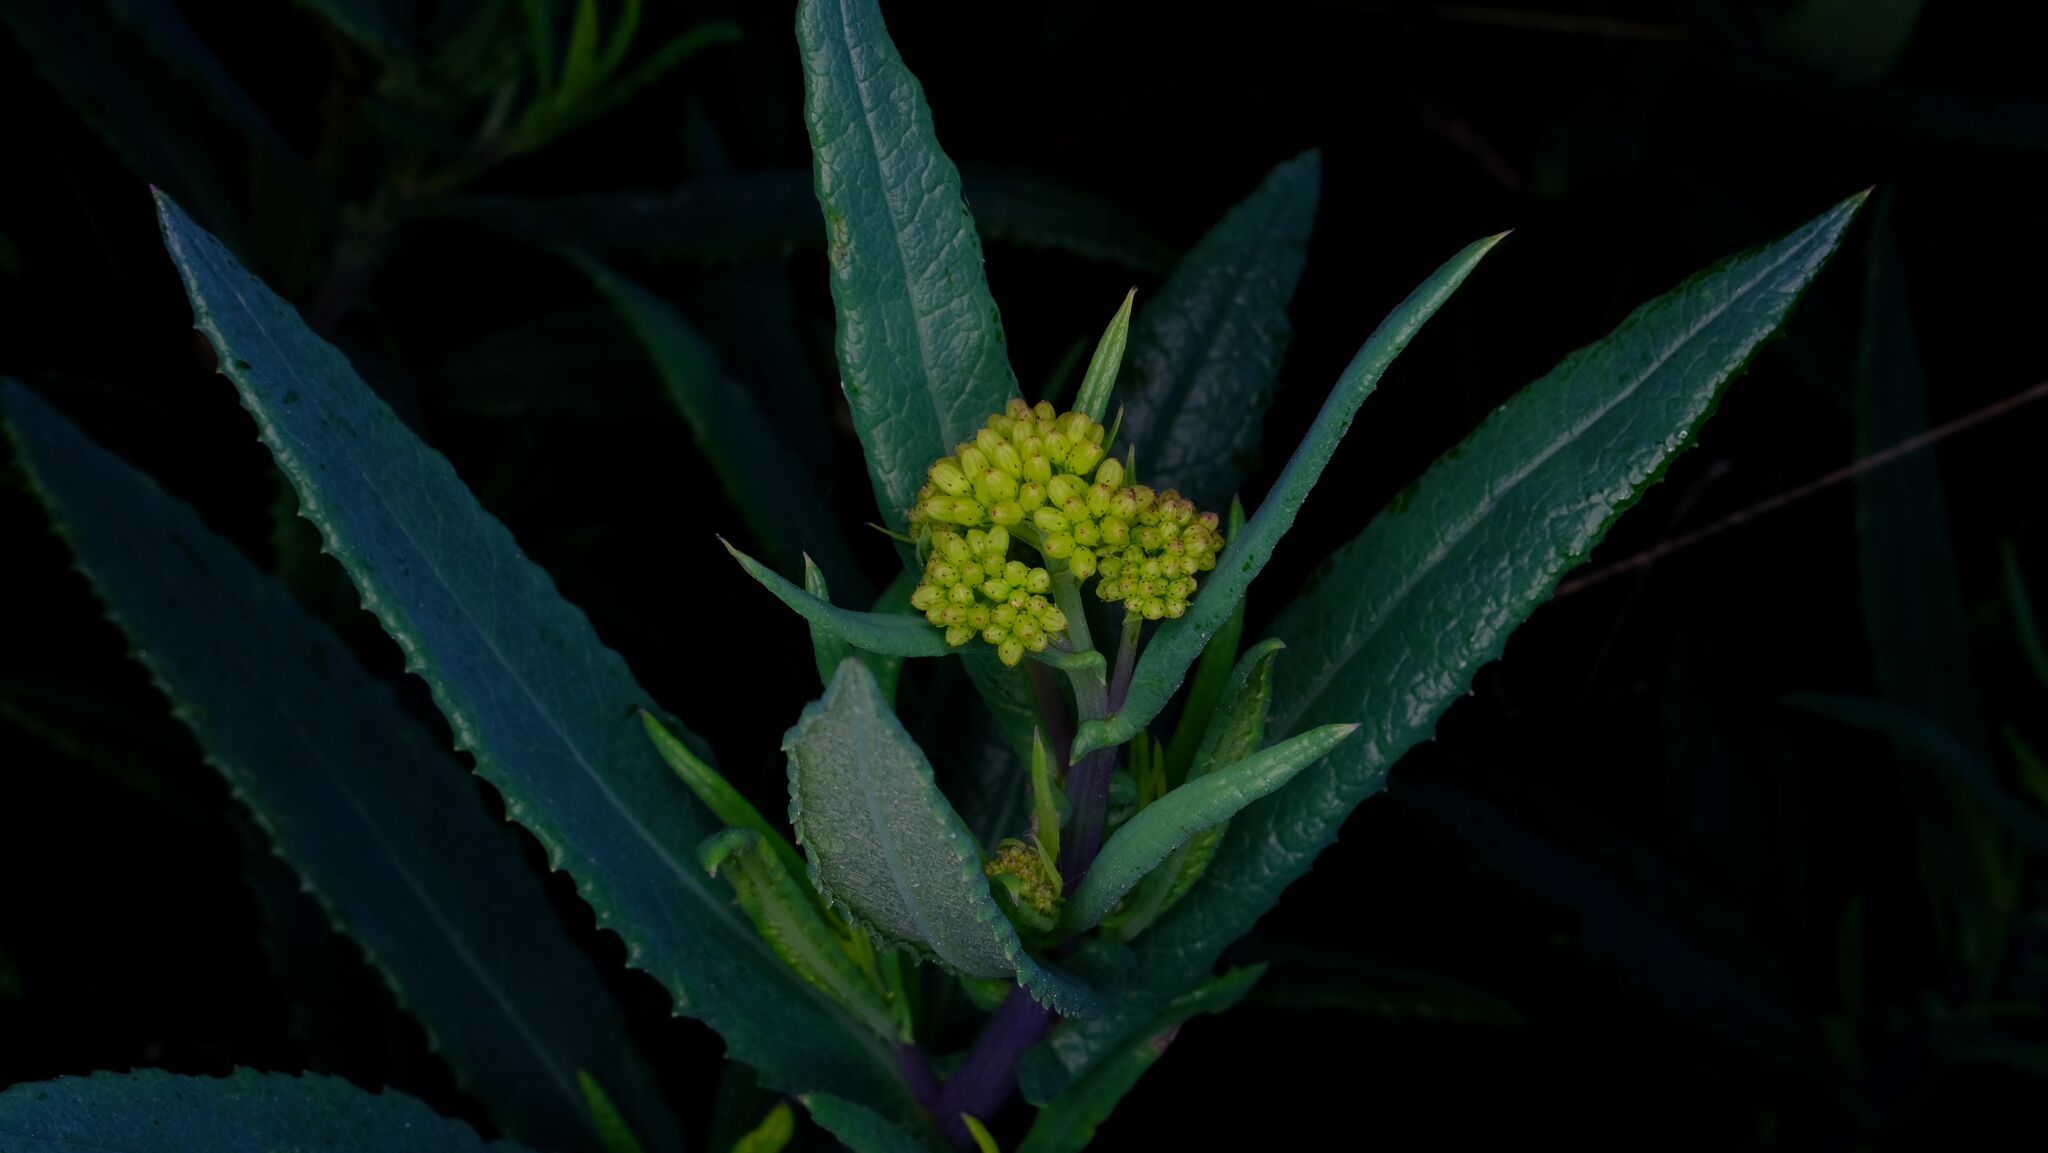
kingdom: Plantae
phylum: Tracheophyta
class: Magnoliopsida
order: Asterales
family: Asteraceae
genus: Senecio
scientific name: Senecio odoratus
